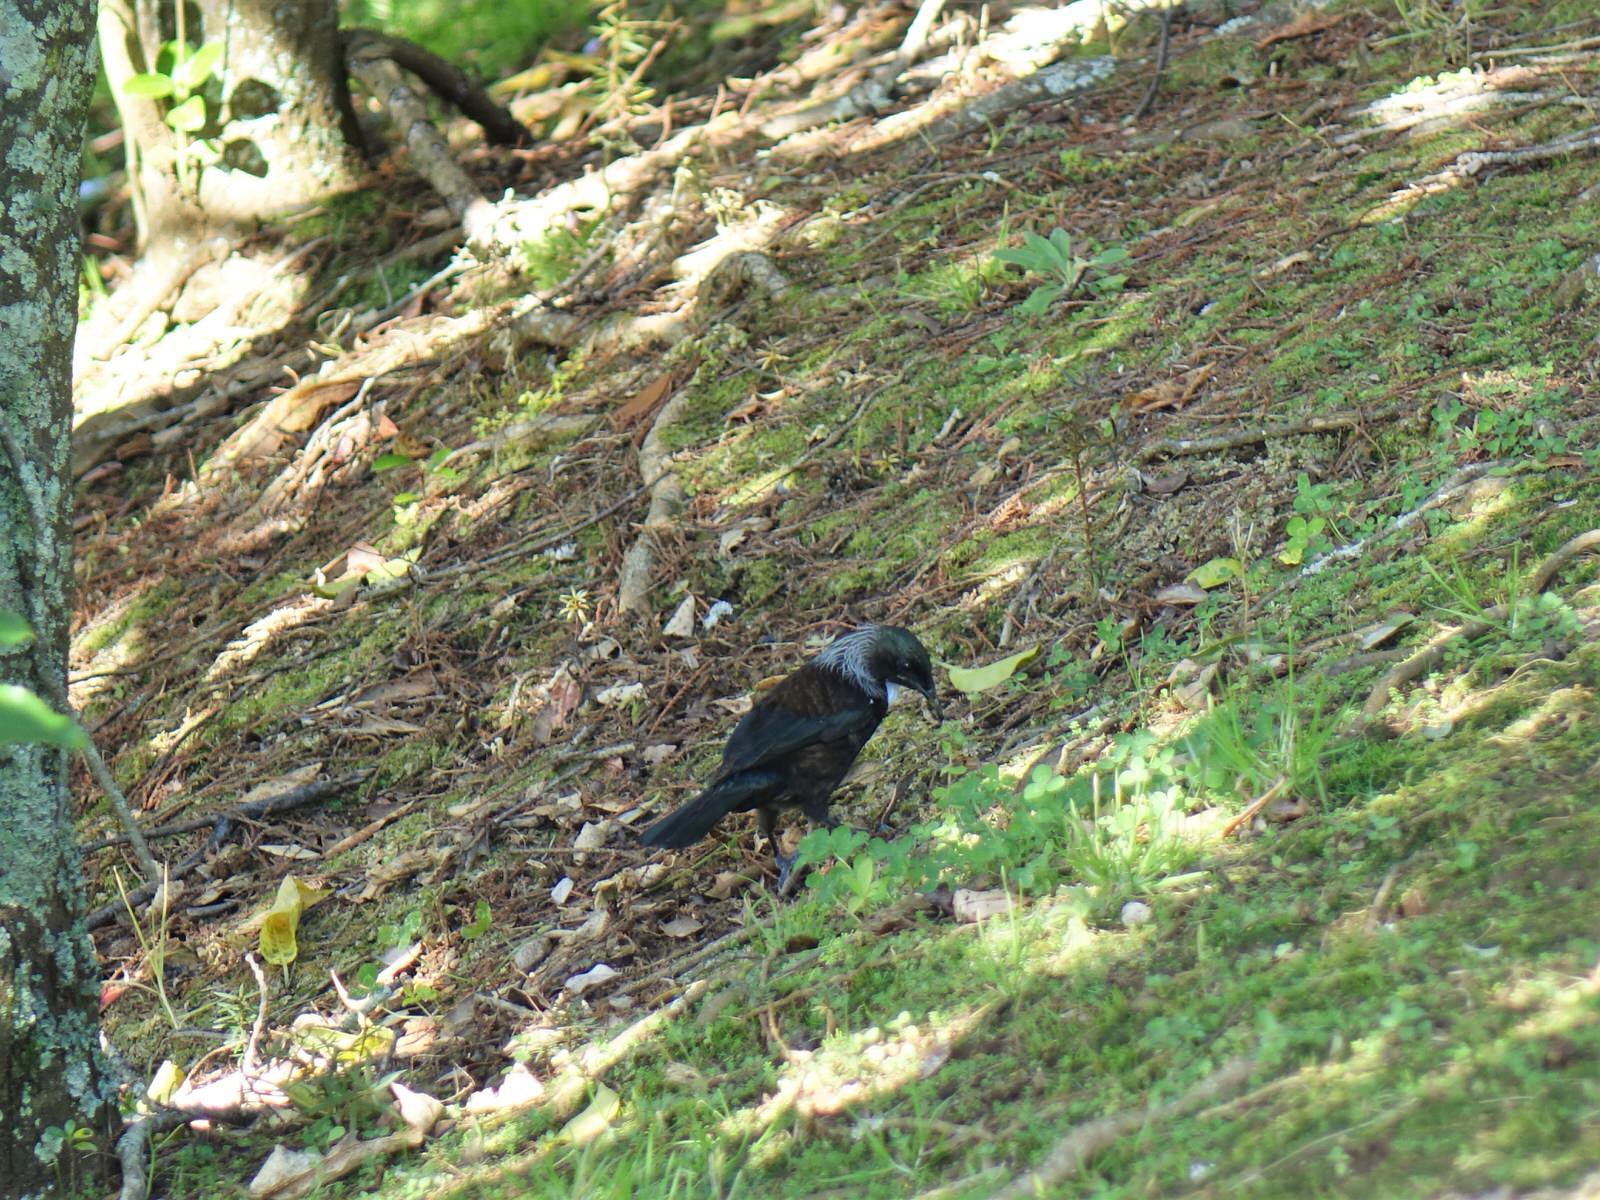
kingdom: Animalia
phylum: Chordata
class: Aves
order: Passeriformes
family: Meliphagidae
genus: Prosthemadera
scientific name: Prosthemadera novaeseelandiae
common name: Tui
